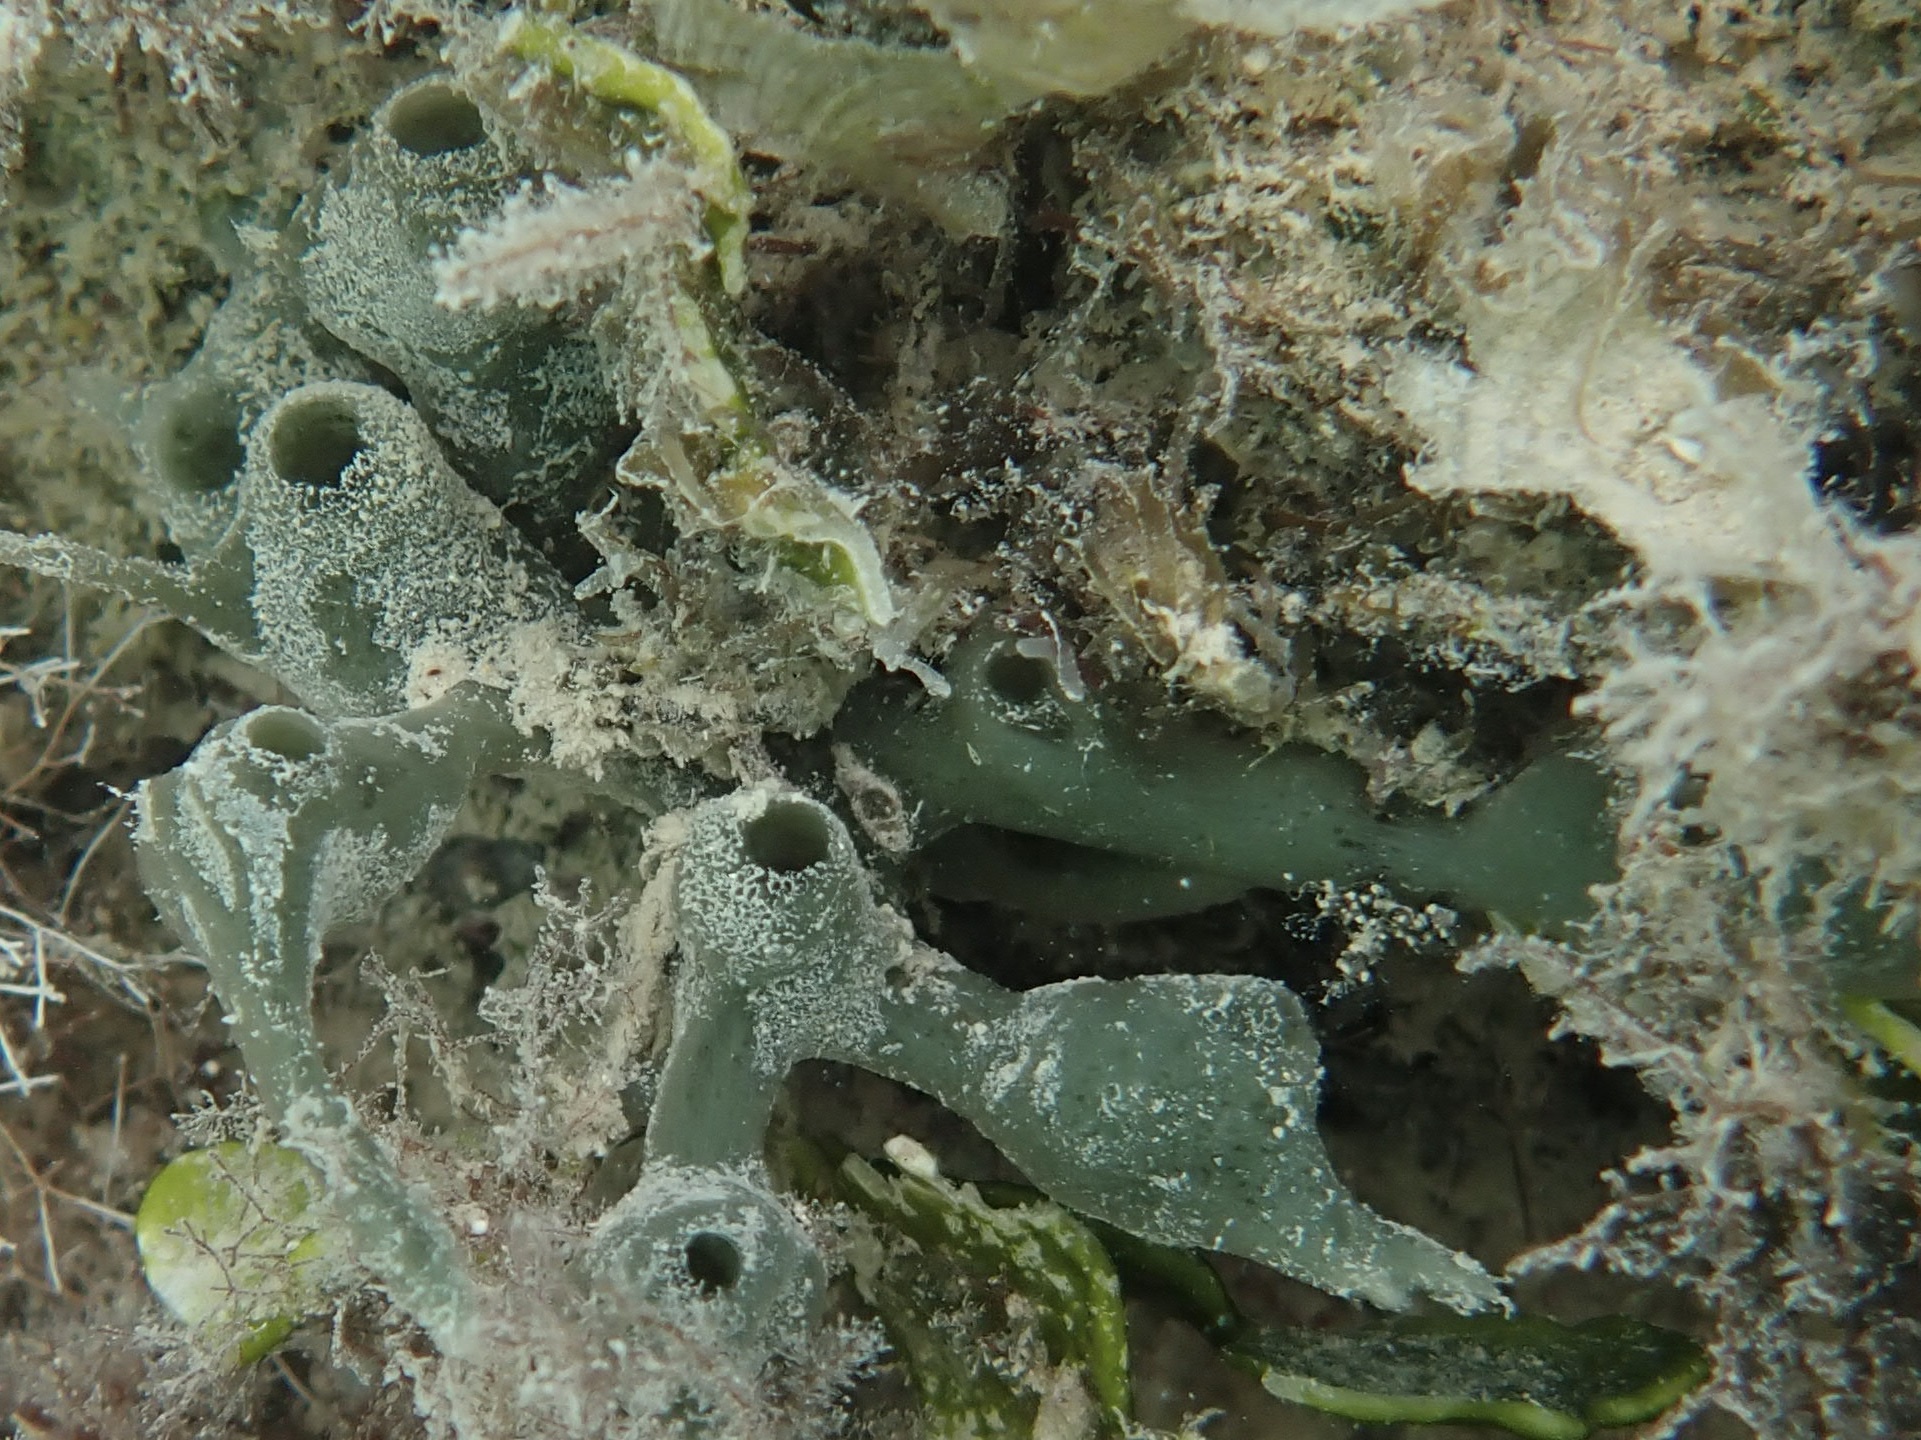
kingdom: Animalia
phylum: Porifera
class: Demospongiae
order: Haplosclerida
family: Chalinidae
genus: Haliclona
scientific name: Haliclona vermeuleni
